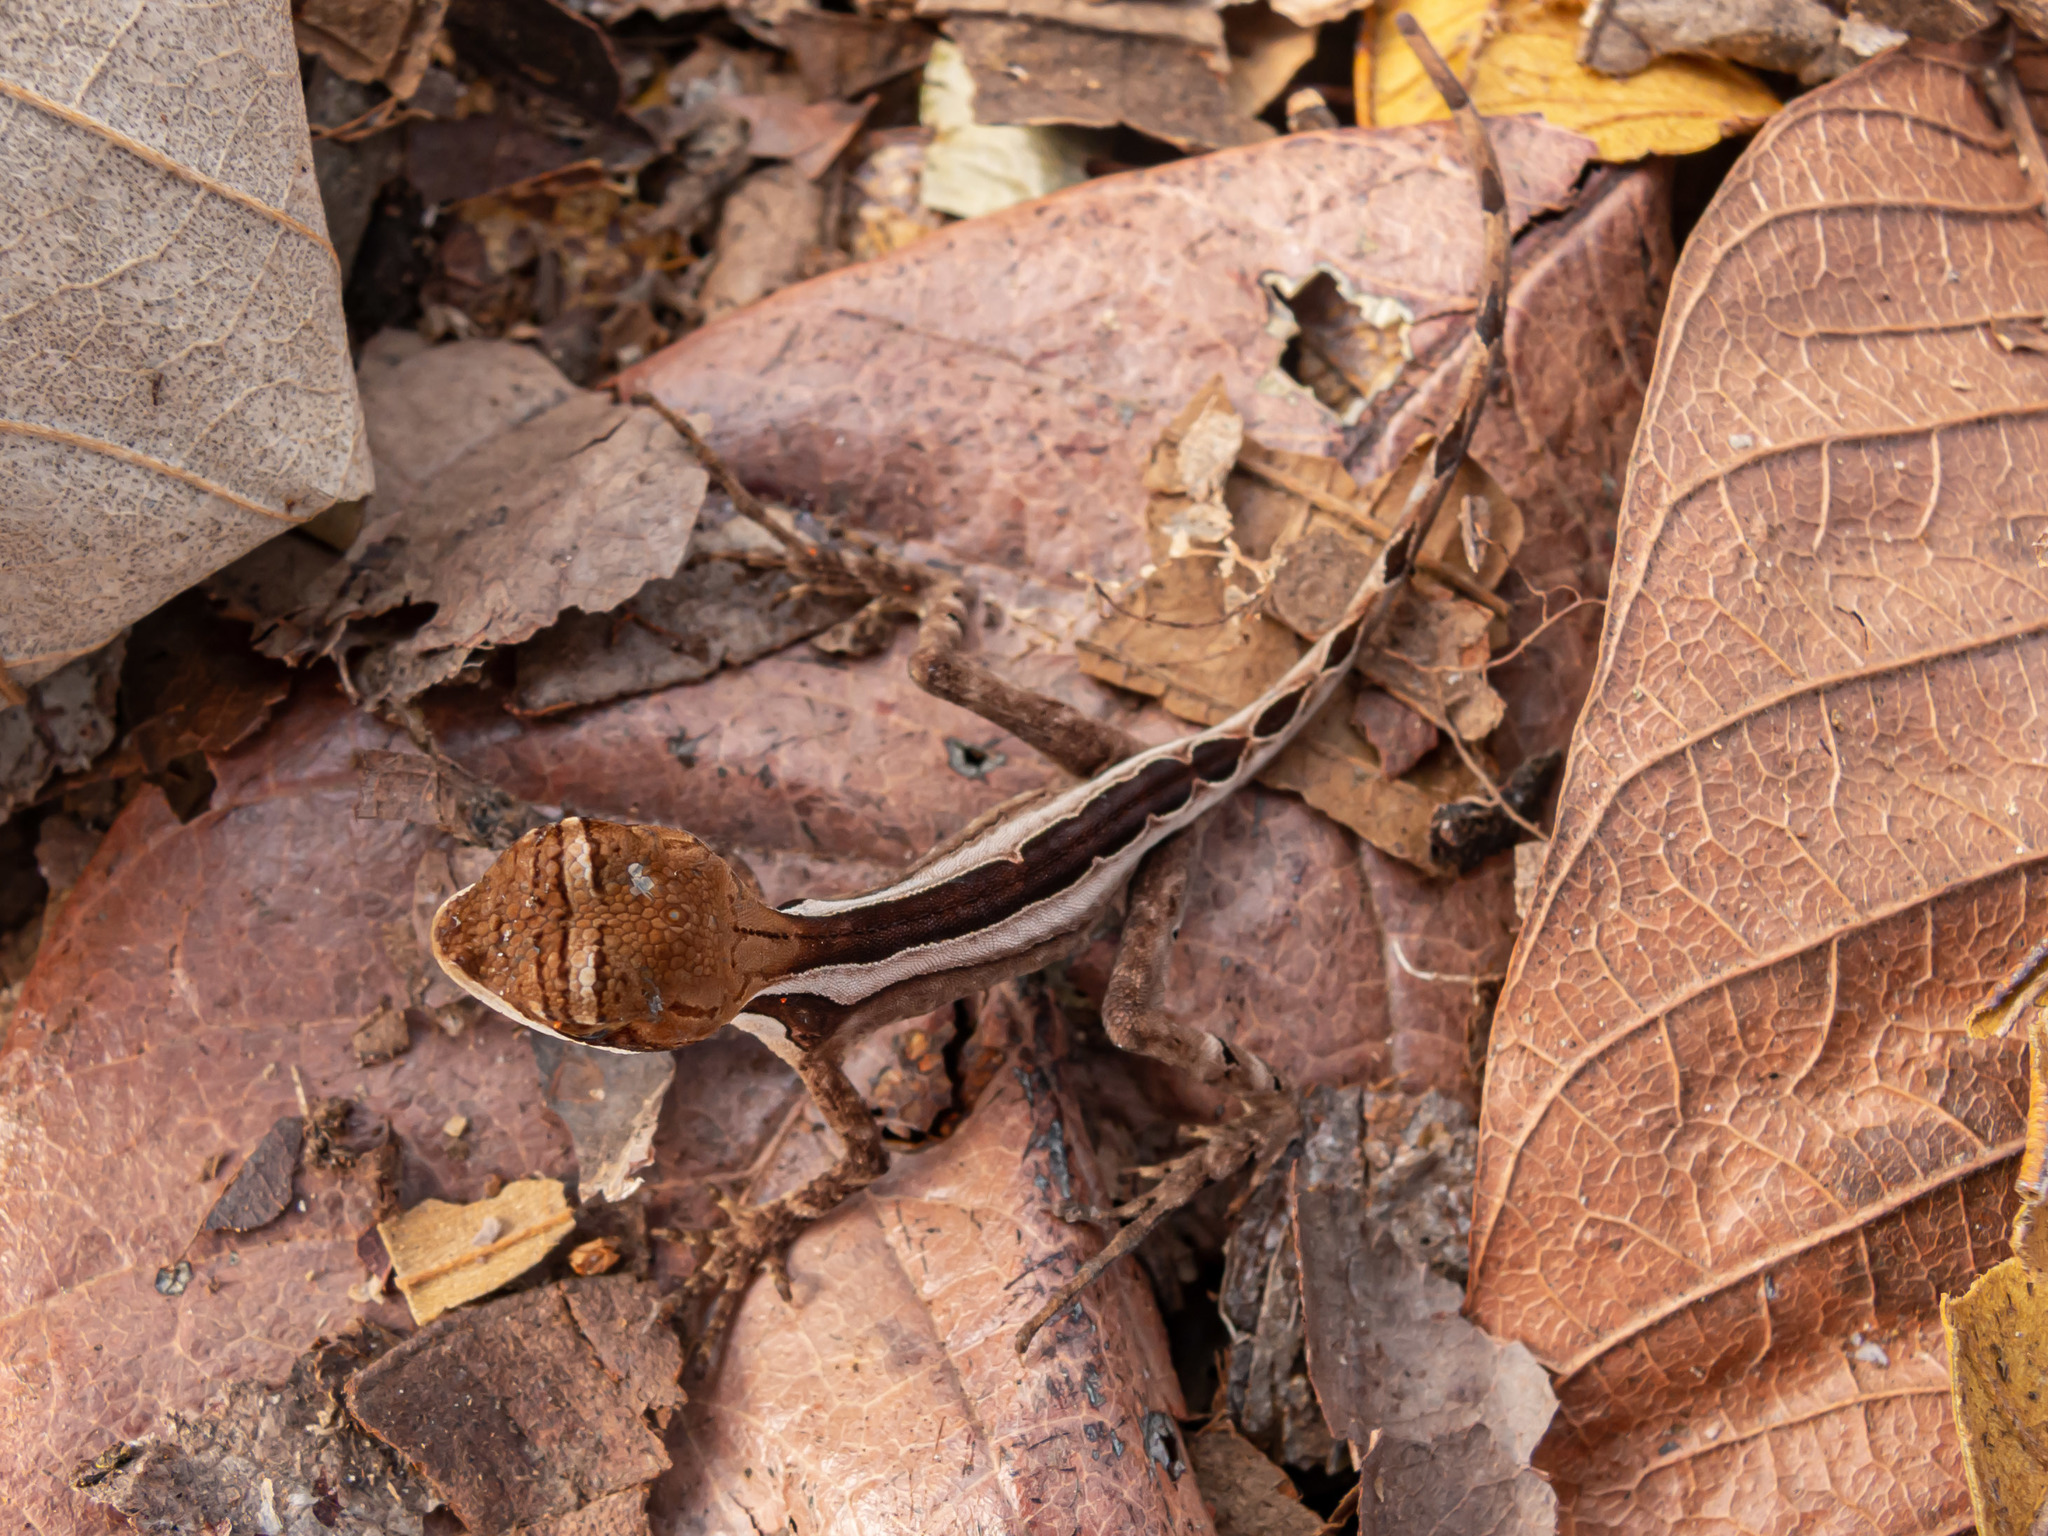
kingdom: Animalia
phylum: Chordata
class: Squamata
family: Leiosauridae
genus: Enyalius
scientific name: Enyalius catenatus
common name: Wied's fathead anole
